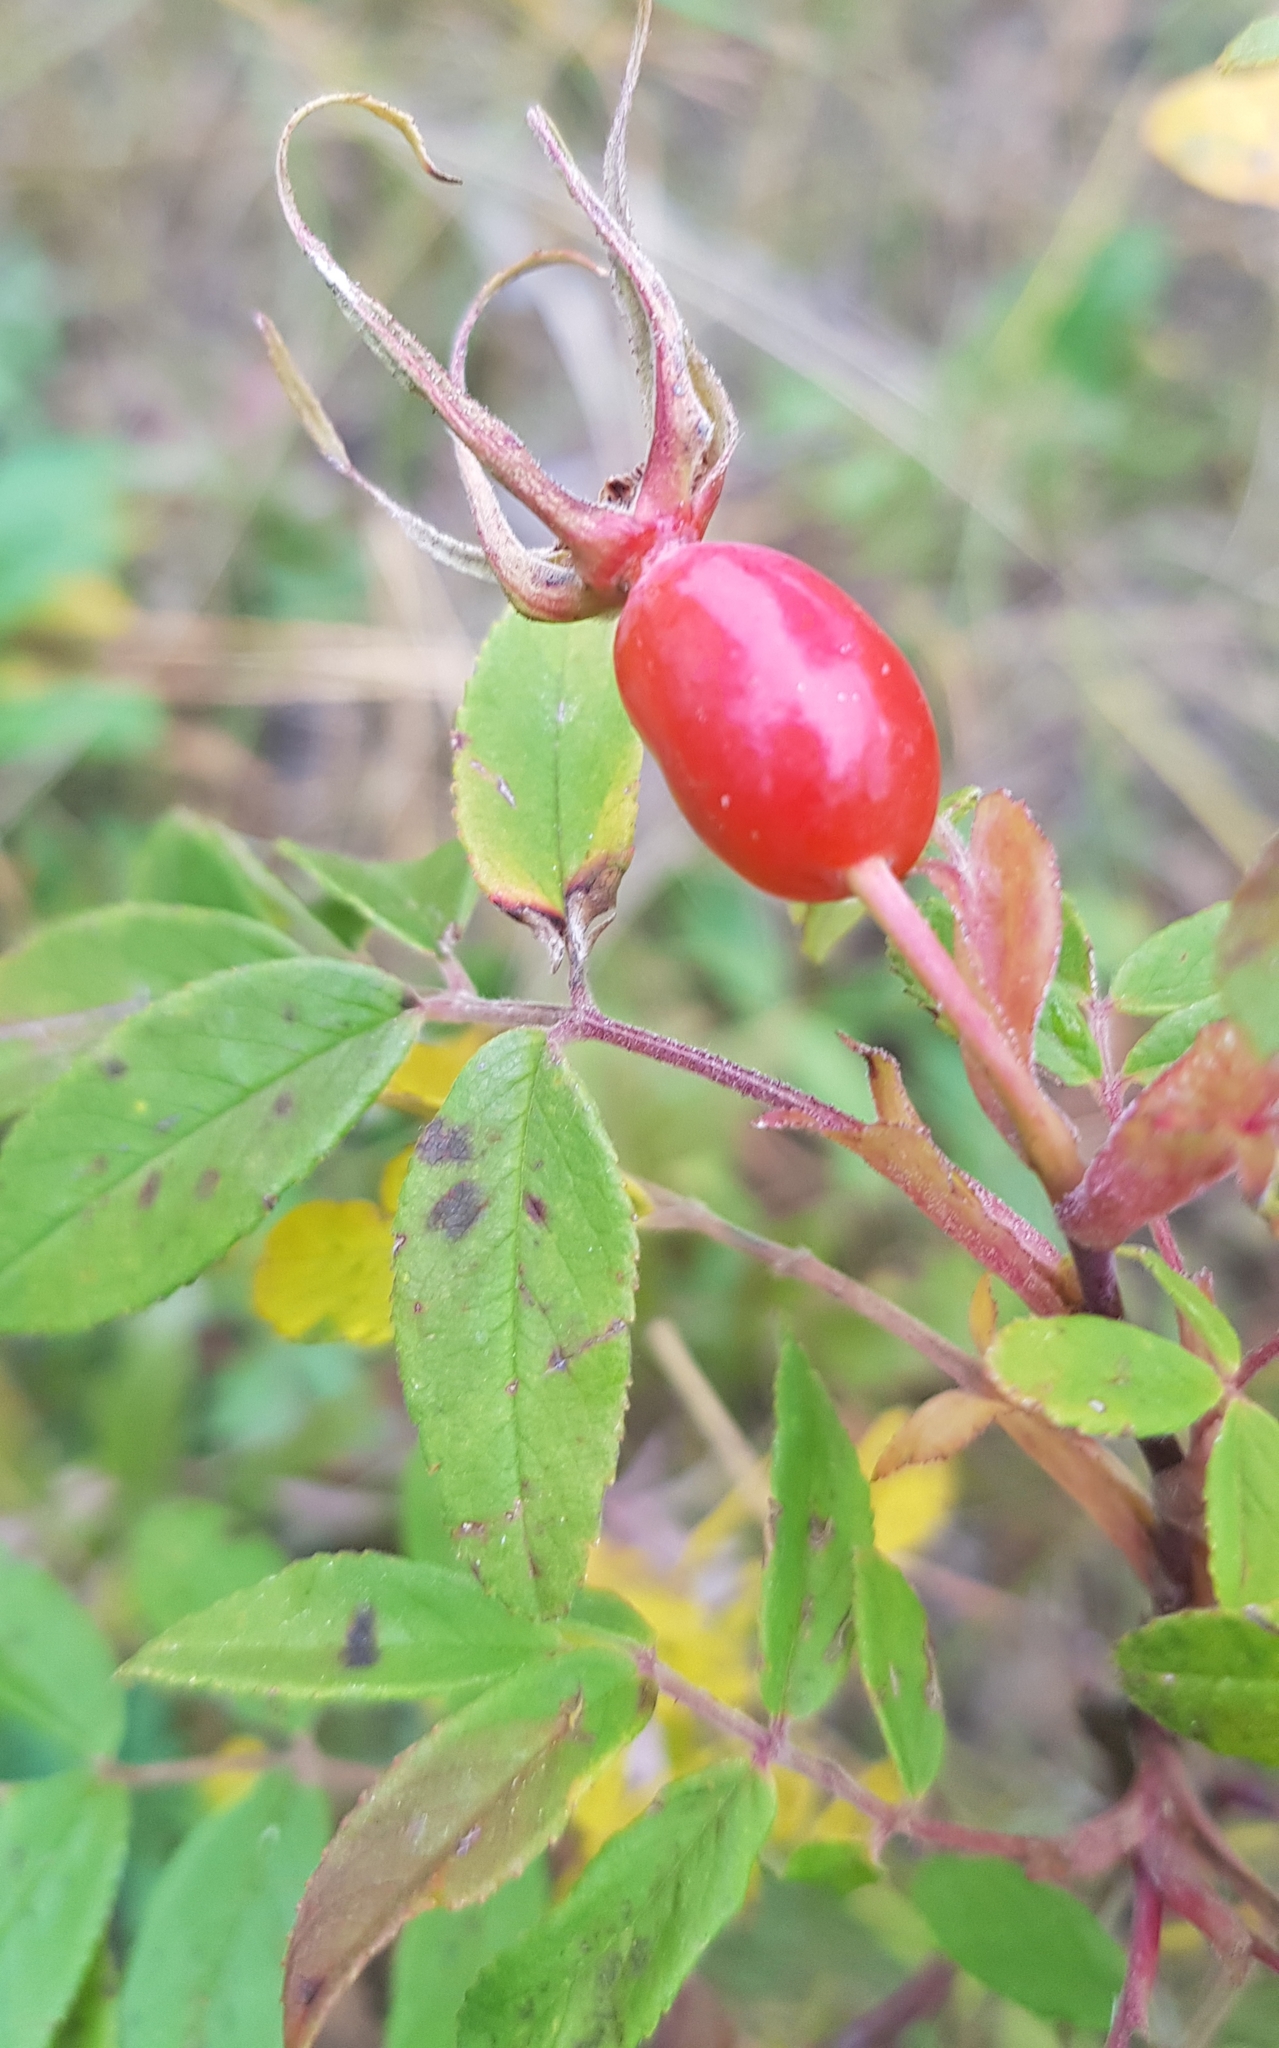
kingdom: Plantae
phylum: Tracheophyta
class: Magnoliopsida
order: Rosales
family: Rosaceae
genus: Rosa
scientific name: Rosa davurica
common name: Amur rose
